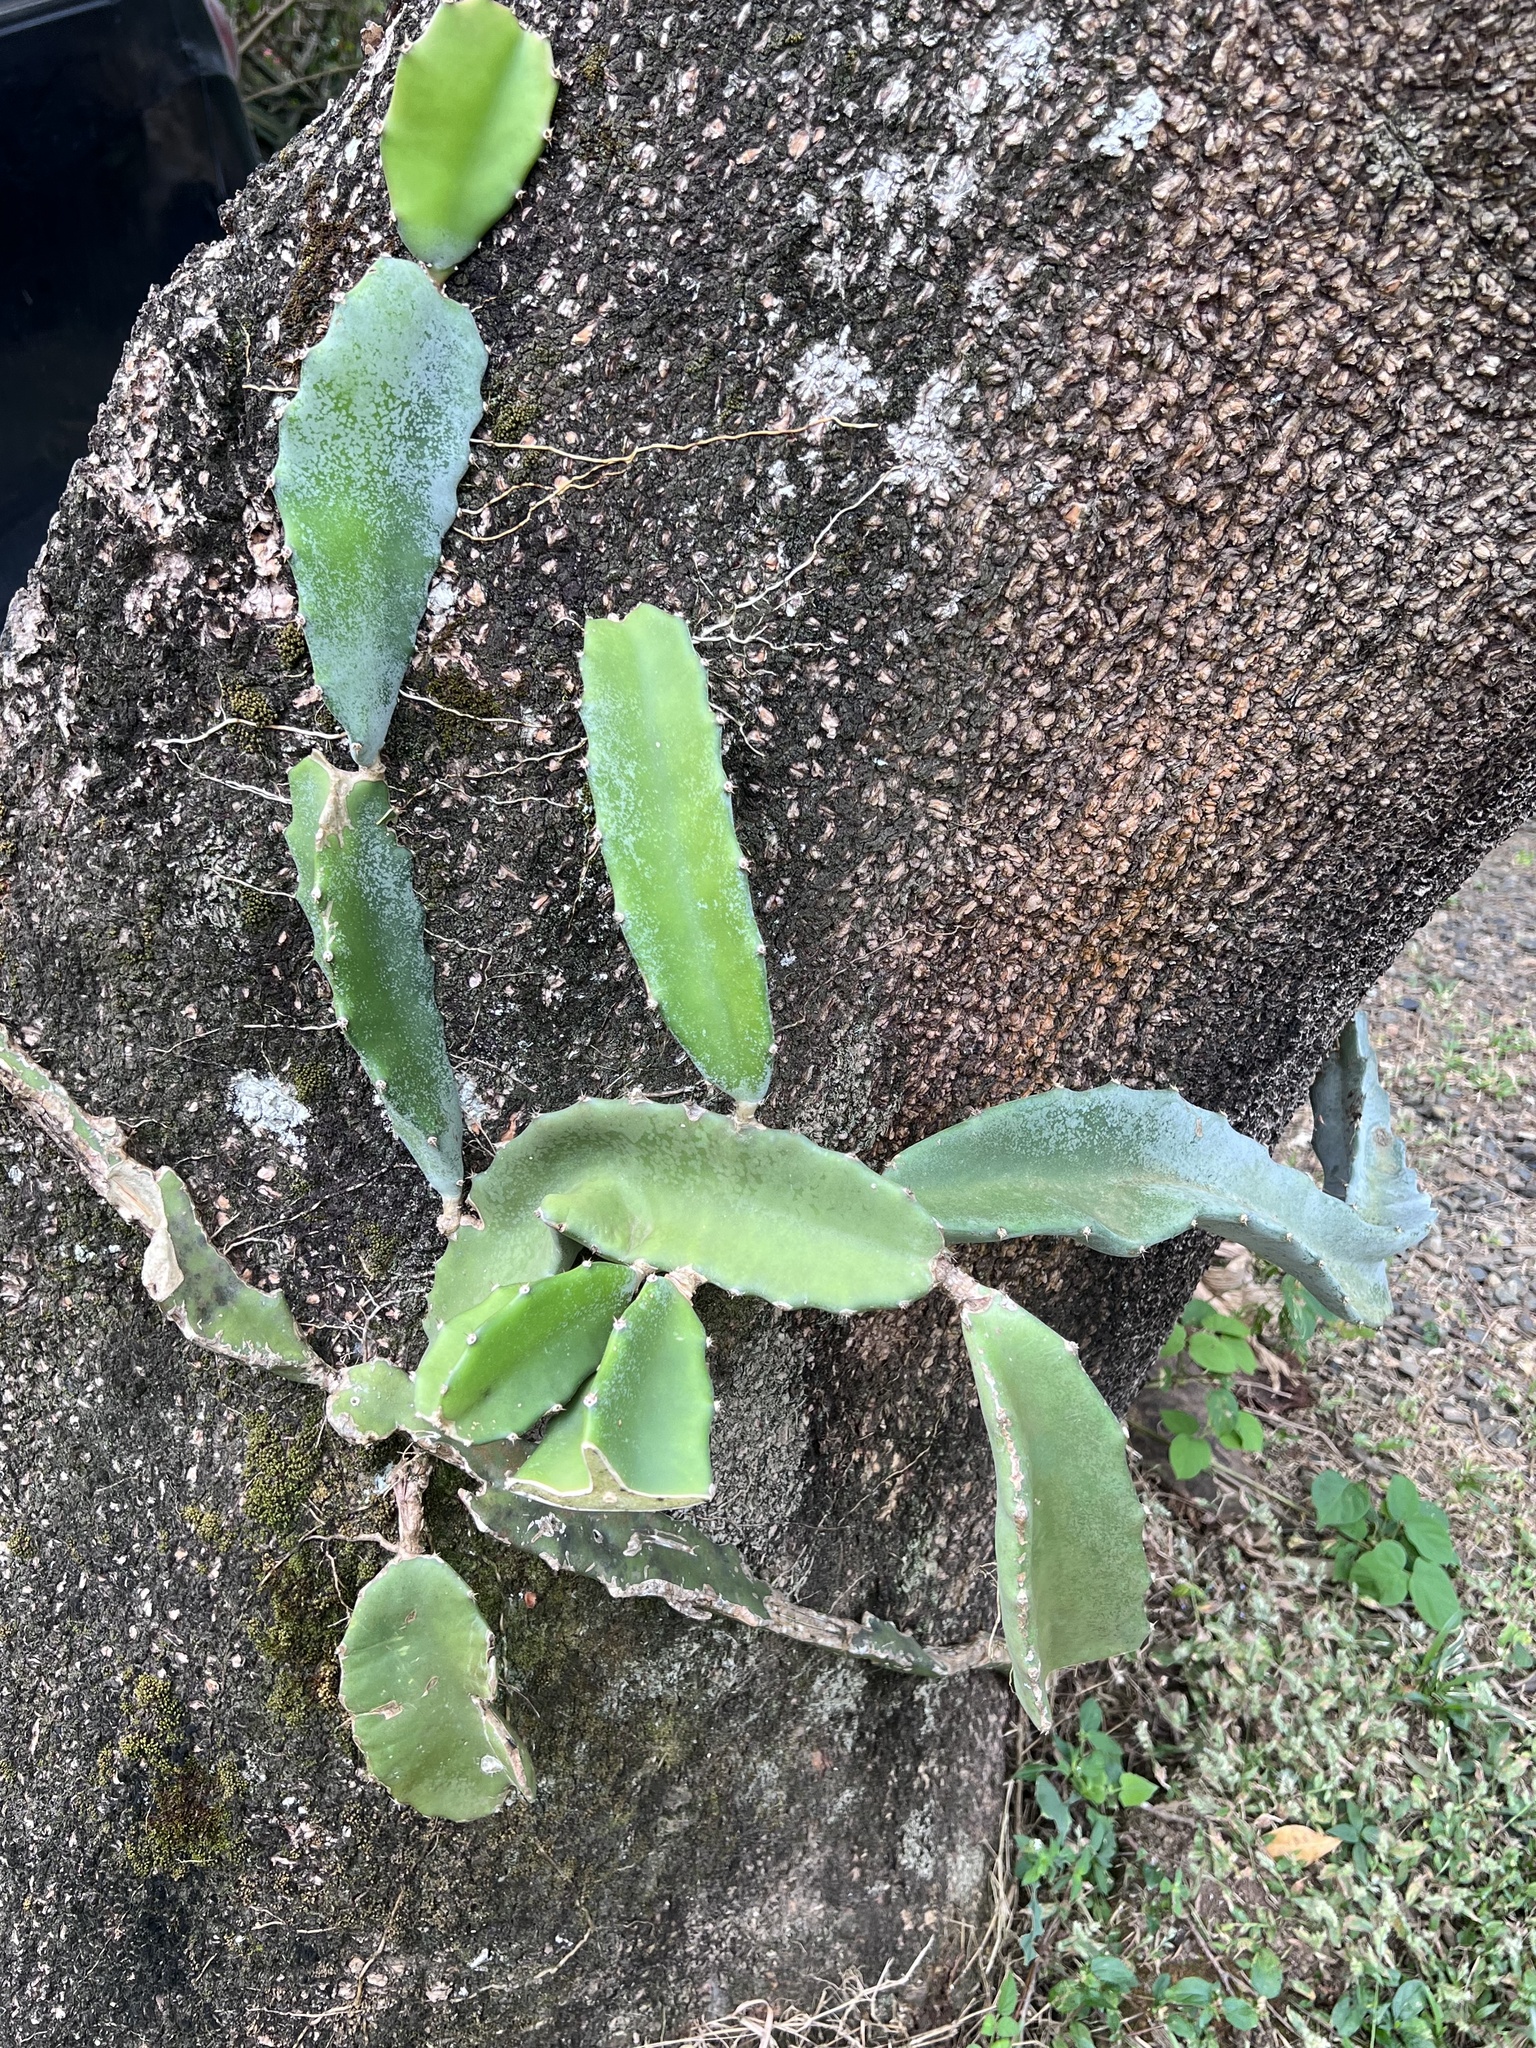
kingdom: Plantae
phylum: Tracheophyta
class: Magnoliopsida
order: Caryophyllales
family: Cactaceae
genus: Selenicereus
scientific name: Selenicereus undatus
